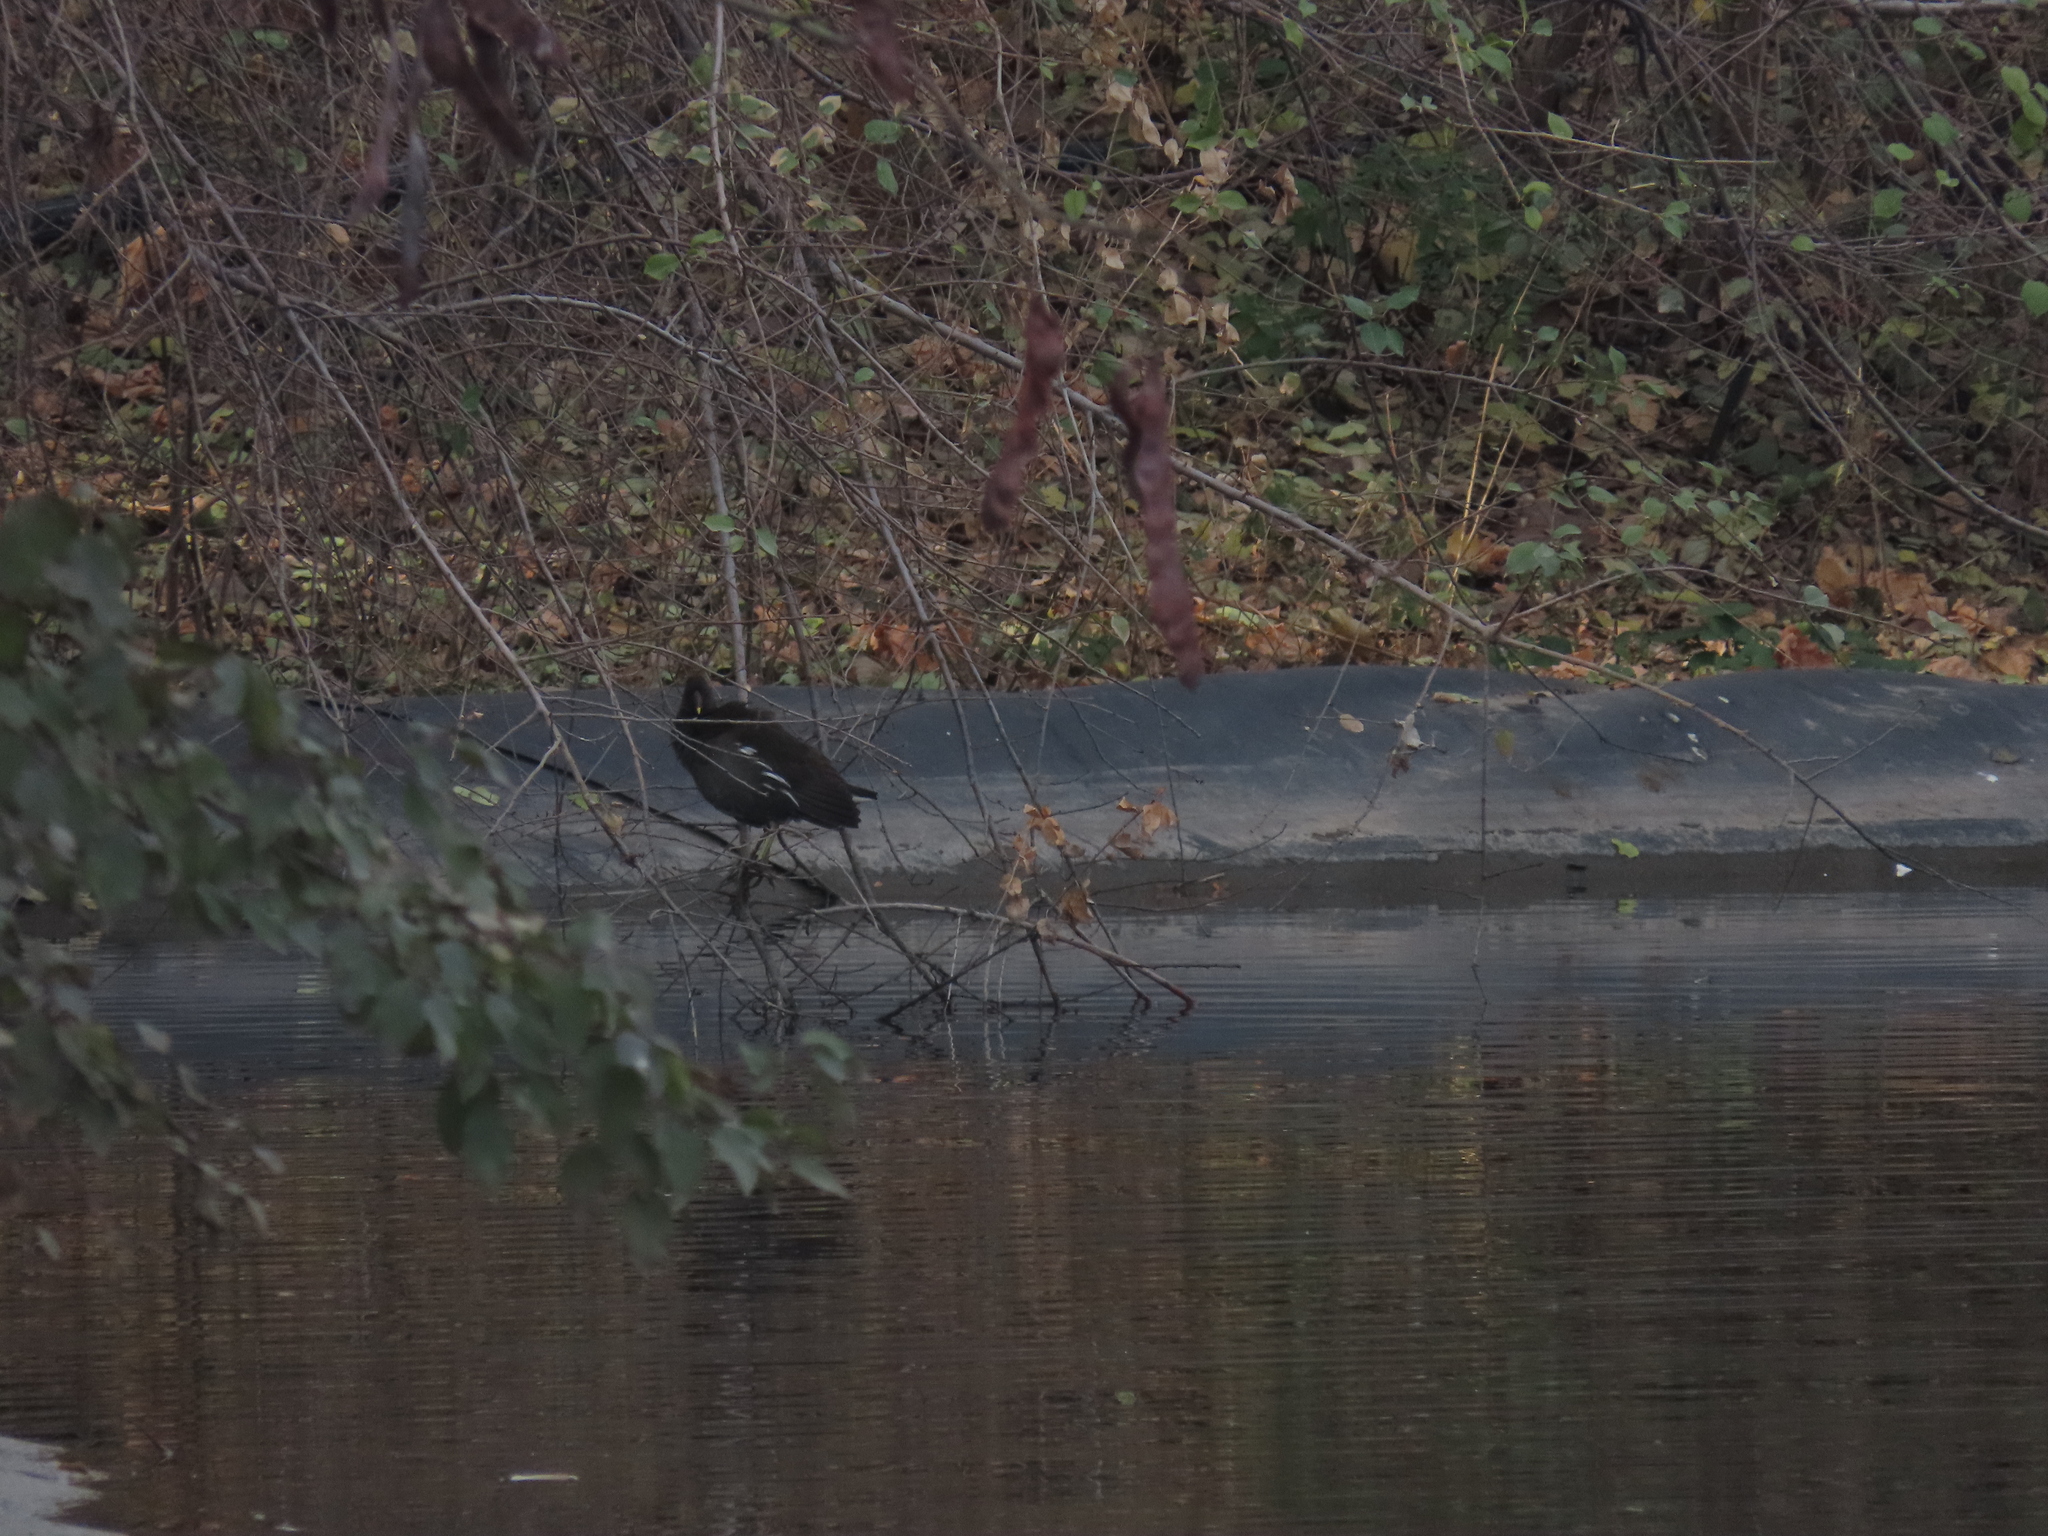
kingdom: Animalia
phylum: Chordata
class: Aves
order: Gruiformes
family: Rallidae
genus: Gallinula
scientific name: Gallinula chloropus
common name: Common moorhen
